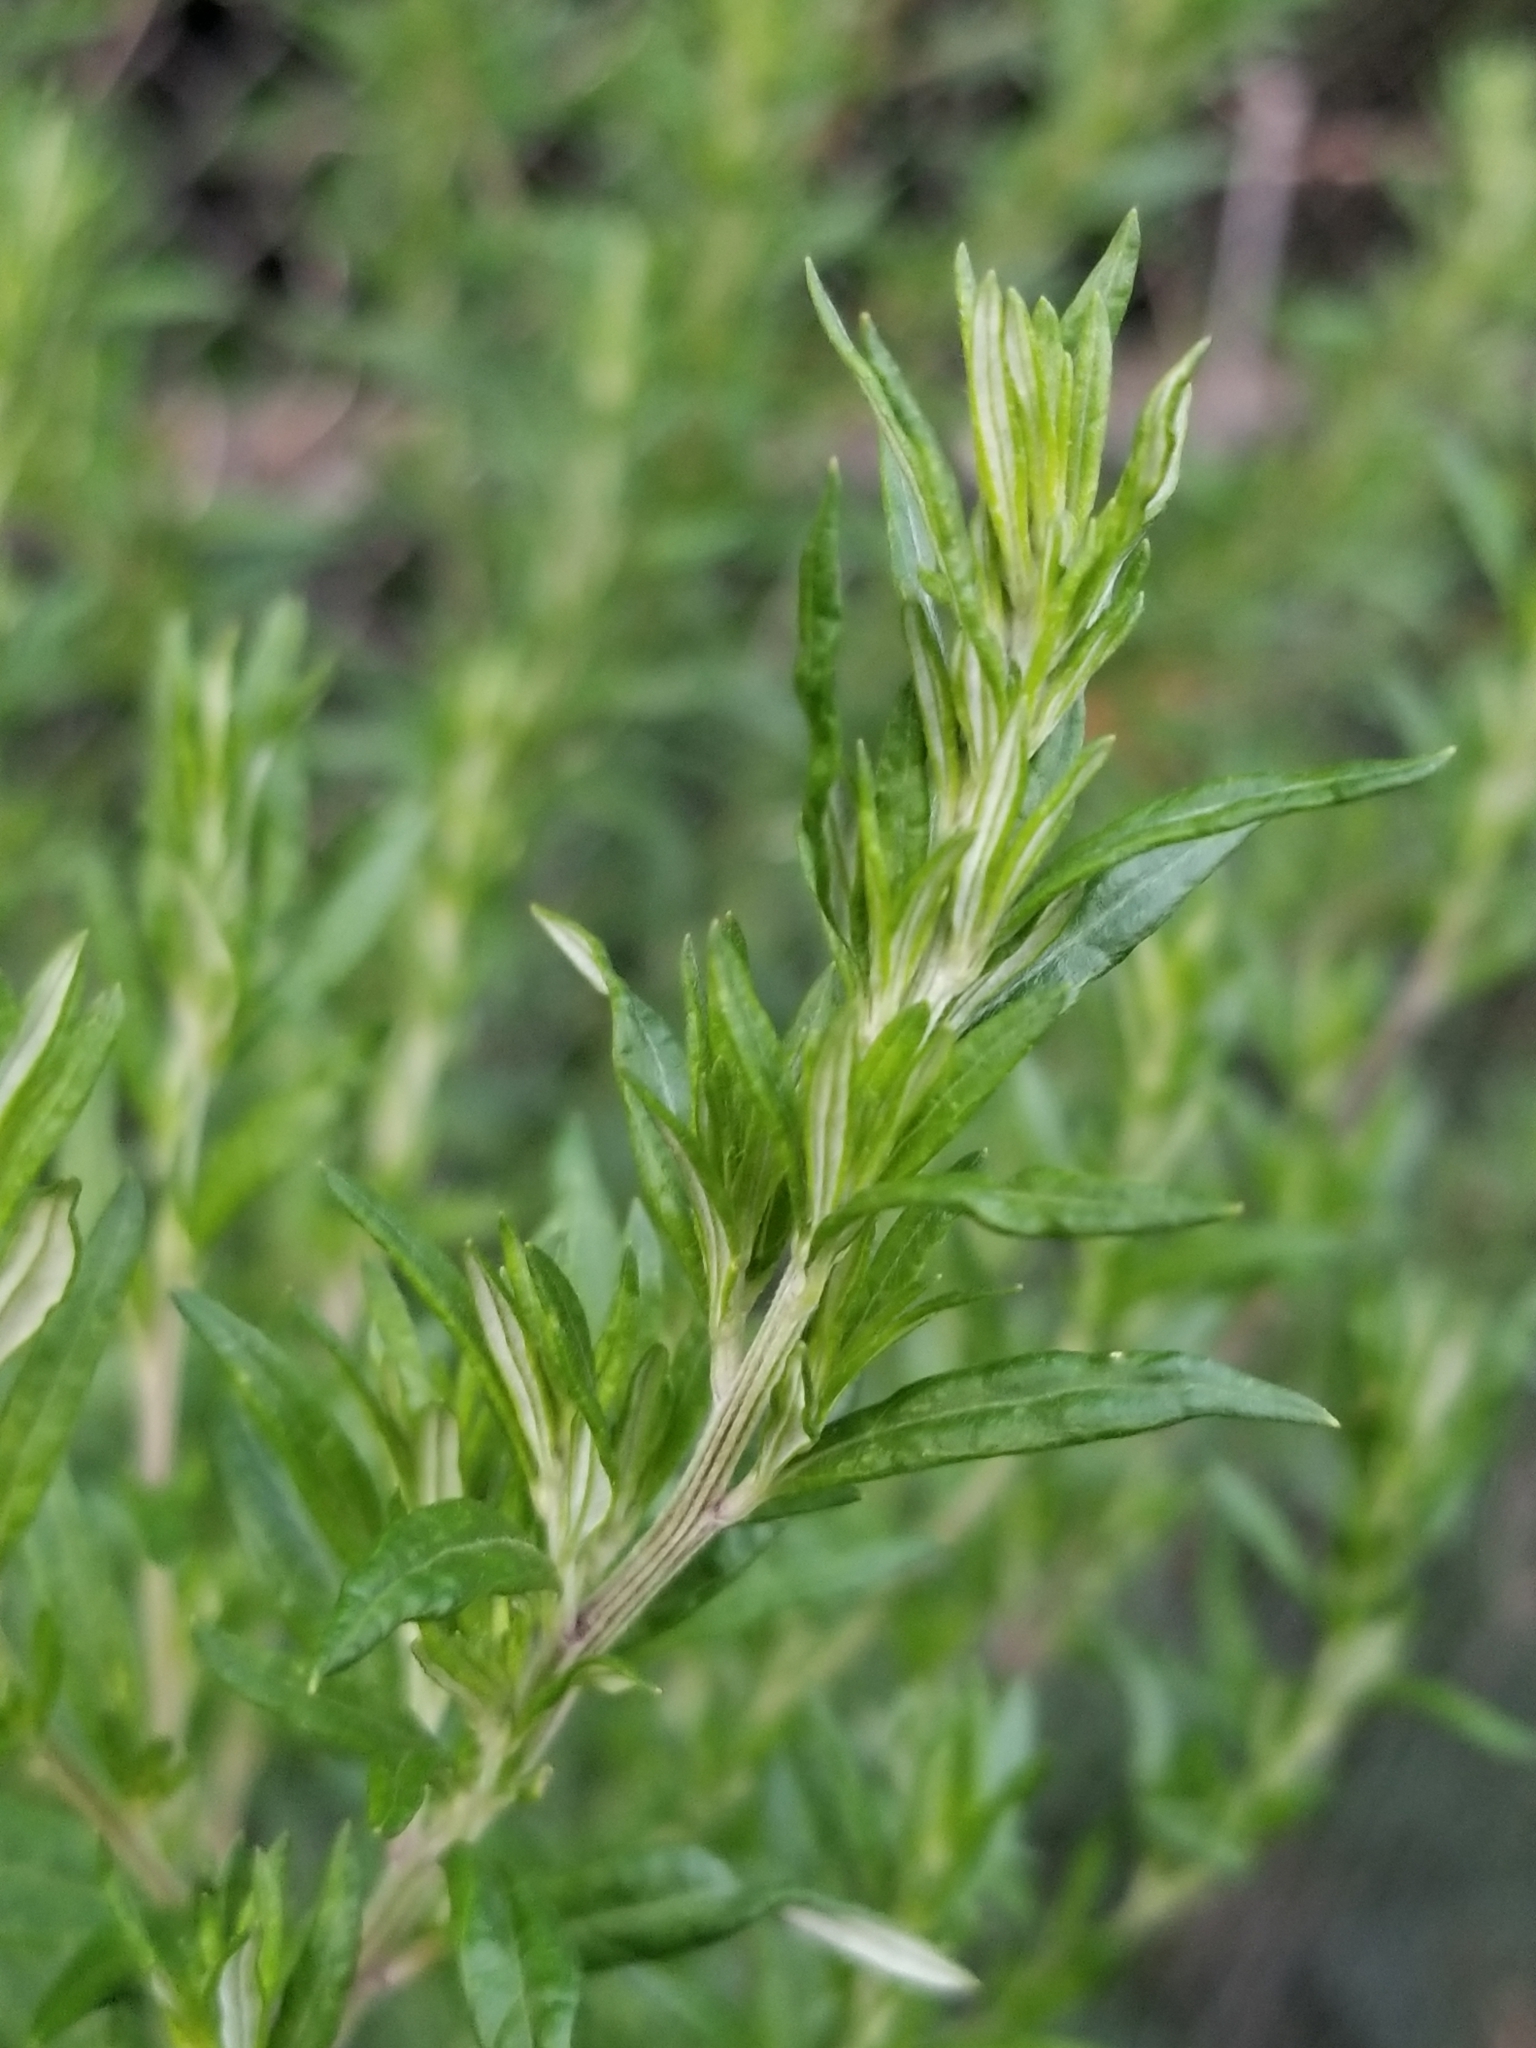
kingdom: Plantae
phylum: Tracheophyta
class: Magnoliopsida
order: Asterales
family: Asteraceae
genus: Artemisia
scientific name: Artemisia vulgaris
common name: Mugwort
